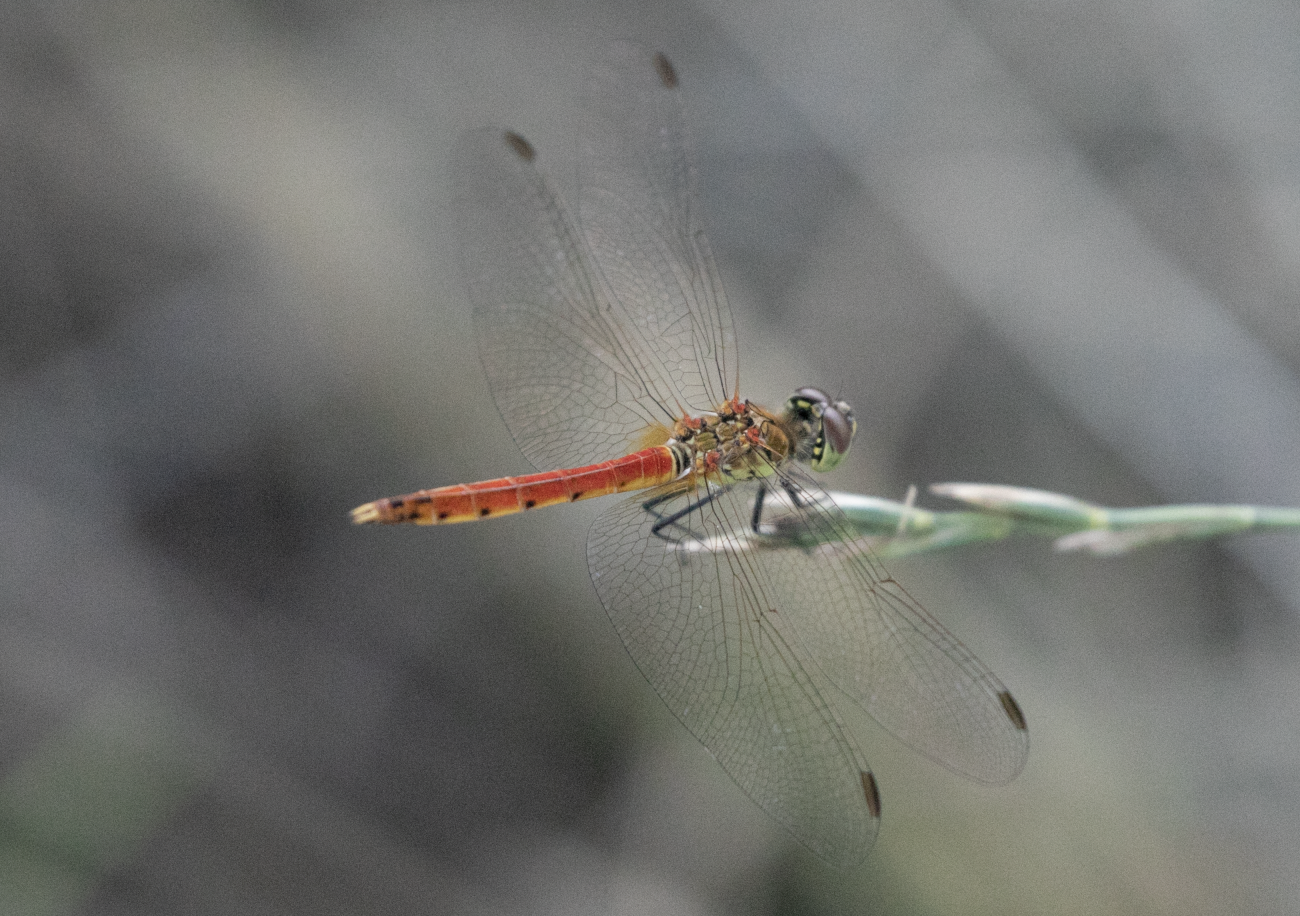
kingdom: Animalia
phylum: Arthropoda
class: Insecta
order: Odonata
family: Libellulidae
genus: Sympetrum
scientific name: Sympetrum depressiusculum
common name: Spotted darter
